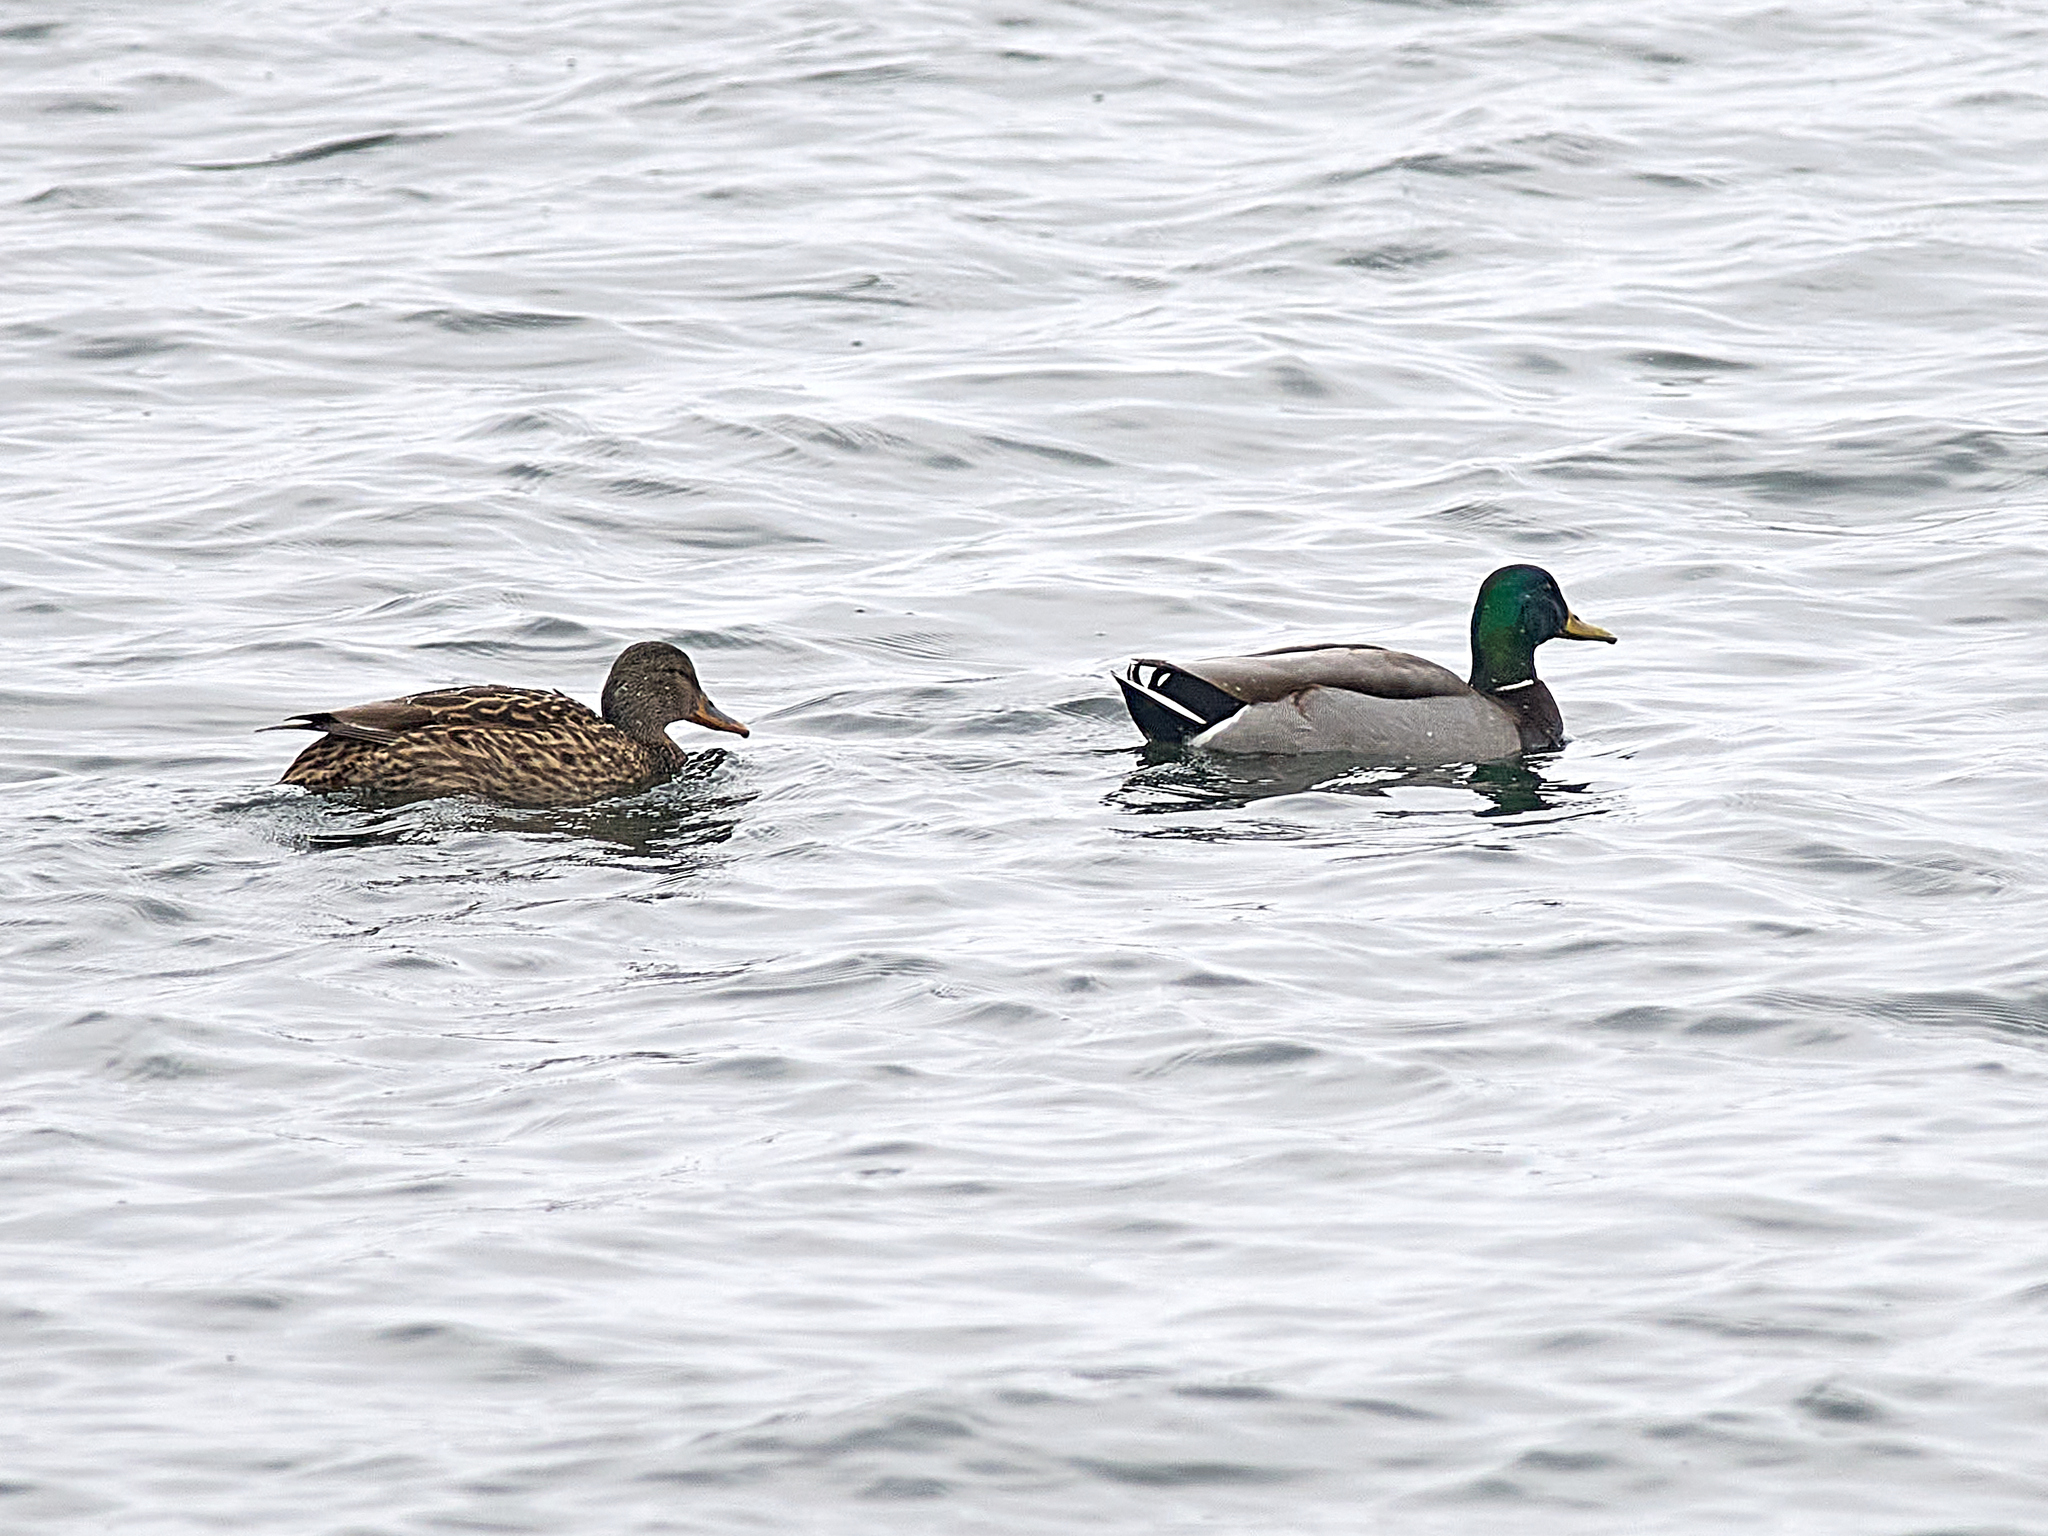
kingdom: Animalia
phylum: Chordata
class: Aves
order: Anseriformes
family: Anatidae
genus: Anas
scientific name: Anas platyrhynchos
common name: Mallard
